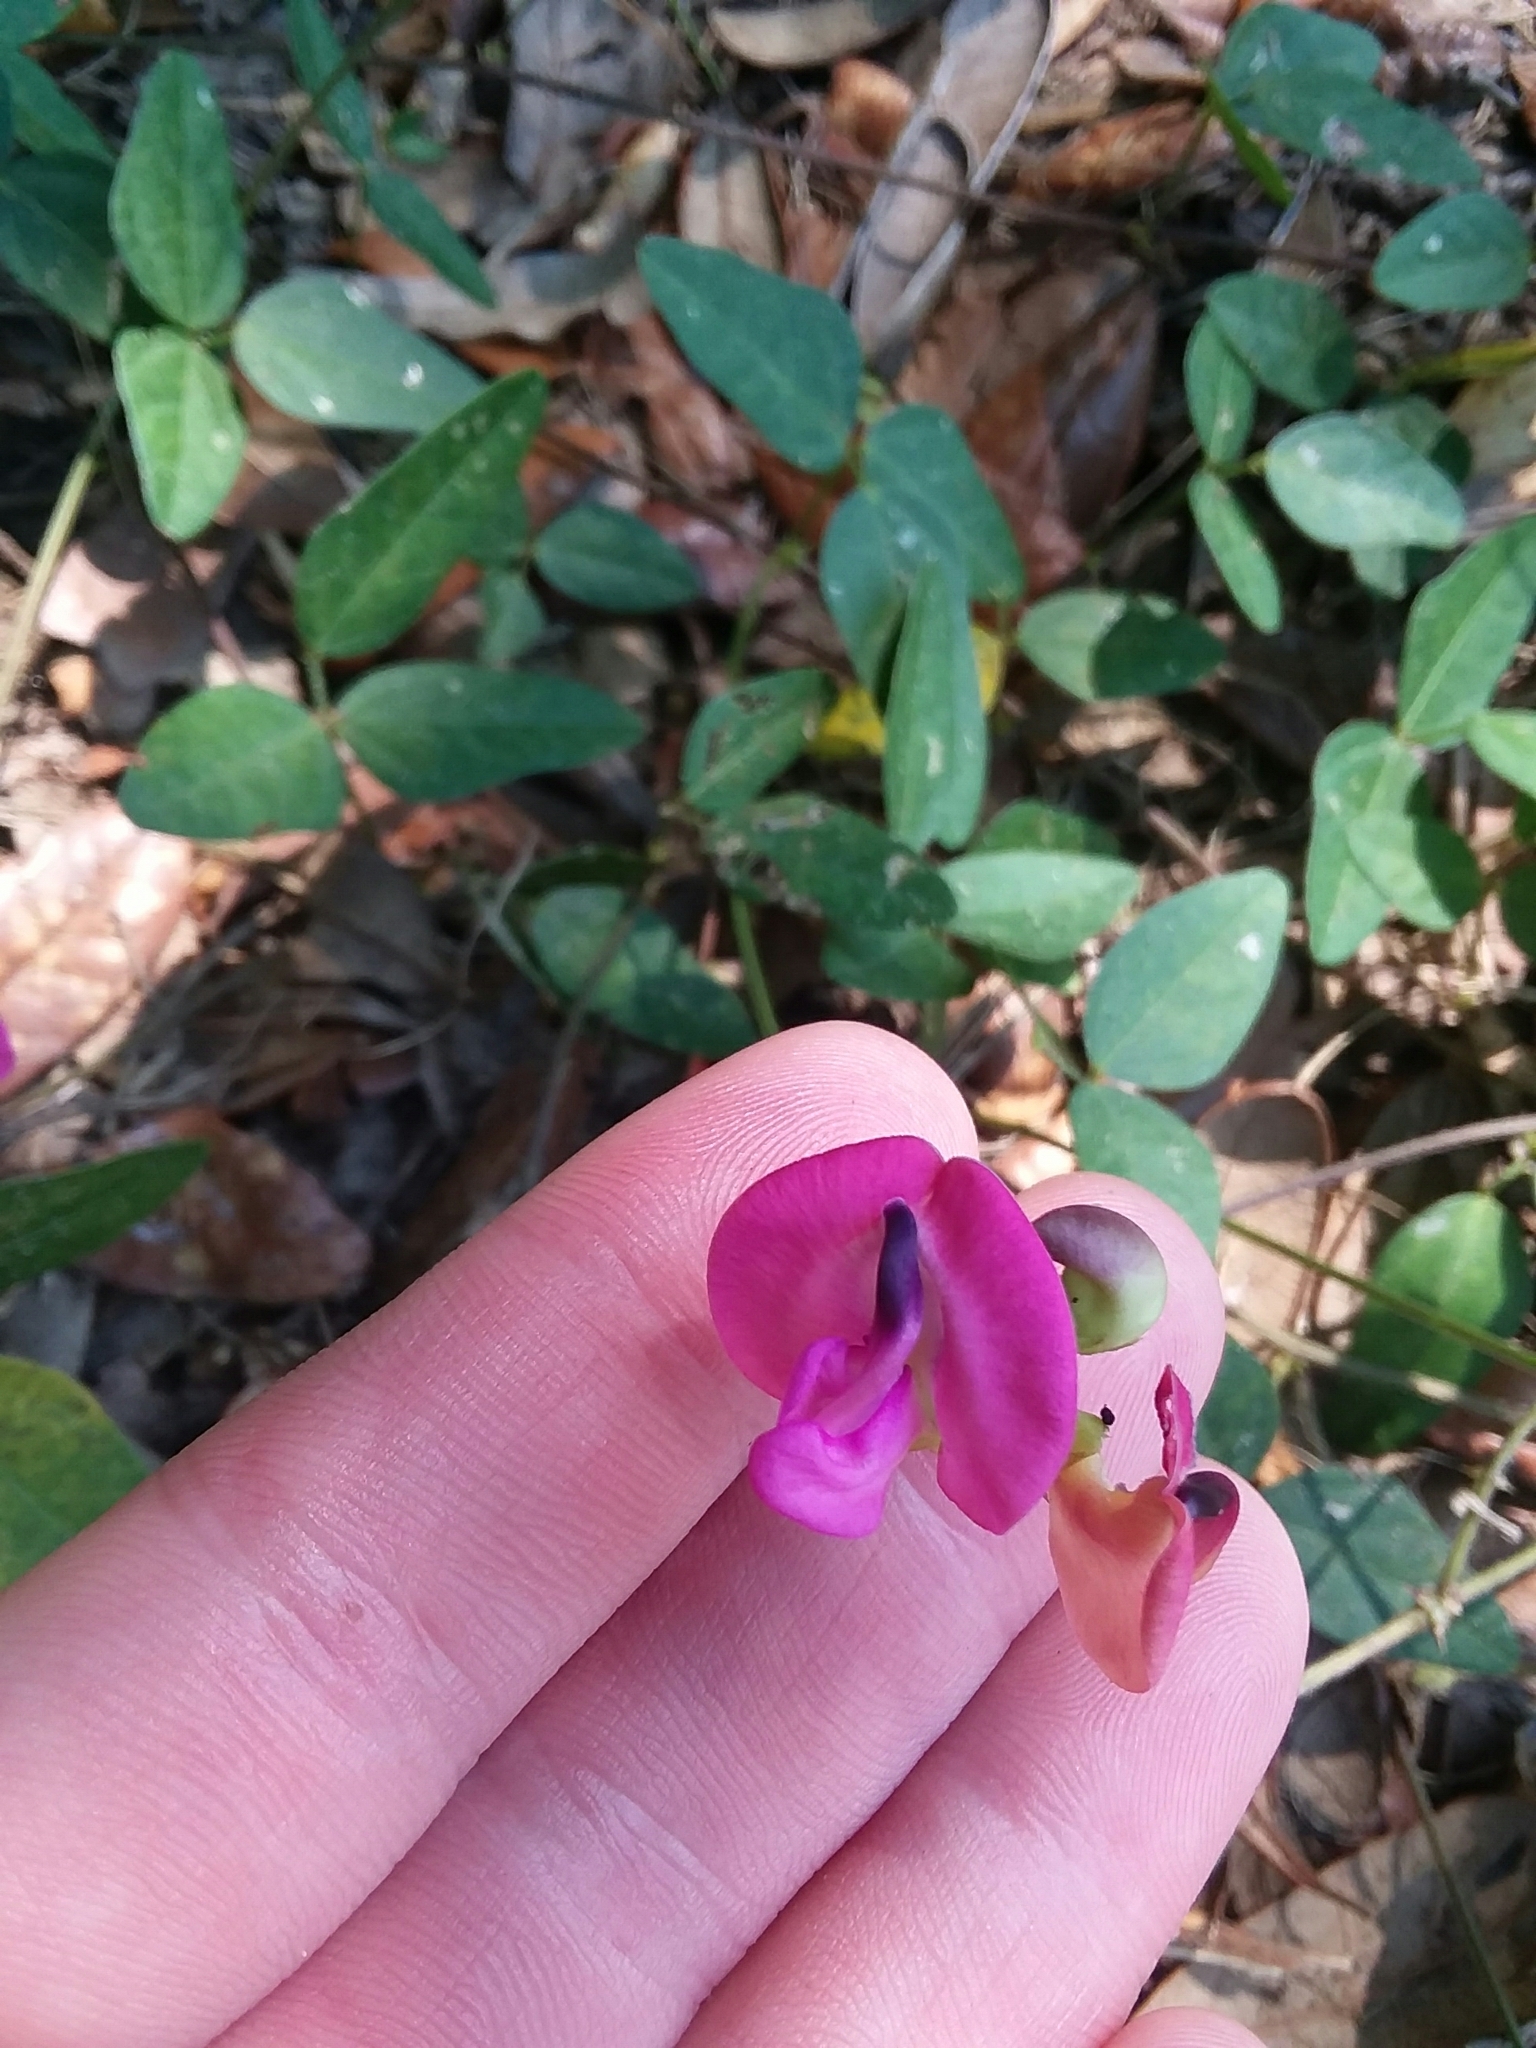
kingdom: Plantae
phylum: Tracheophyta
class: Magnoliopsida
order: Fabales
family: Fabaceae
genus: Strophostyles
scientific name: Strophostyles umbellata
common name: Perennial wild bean
